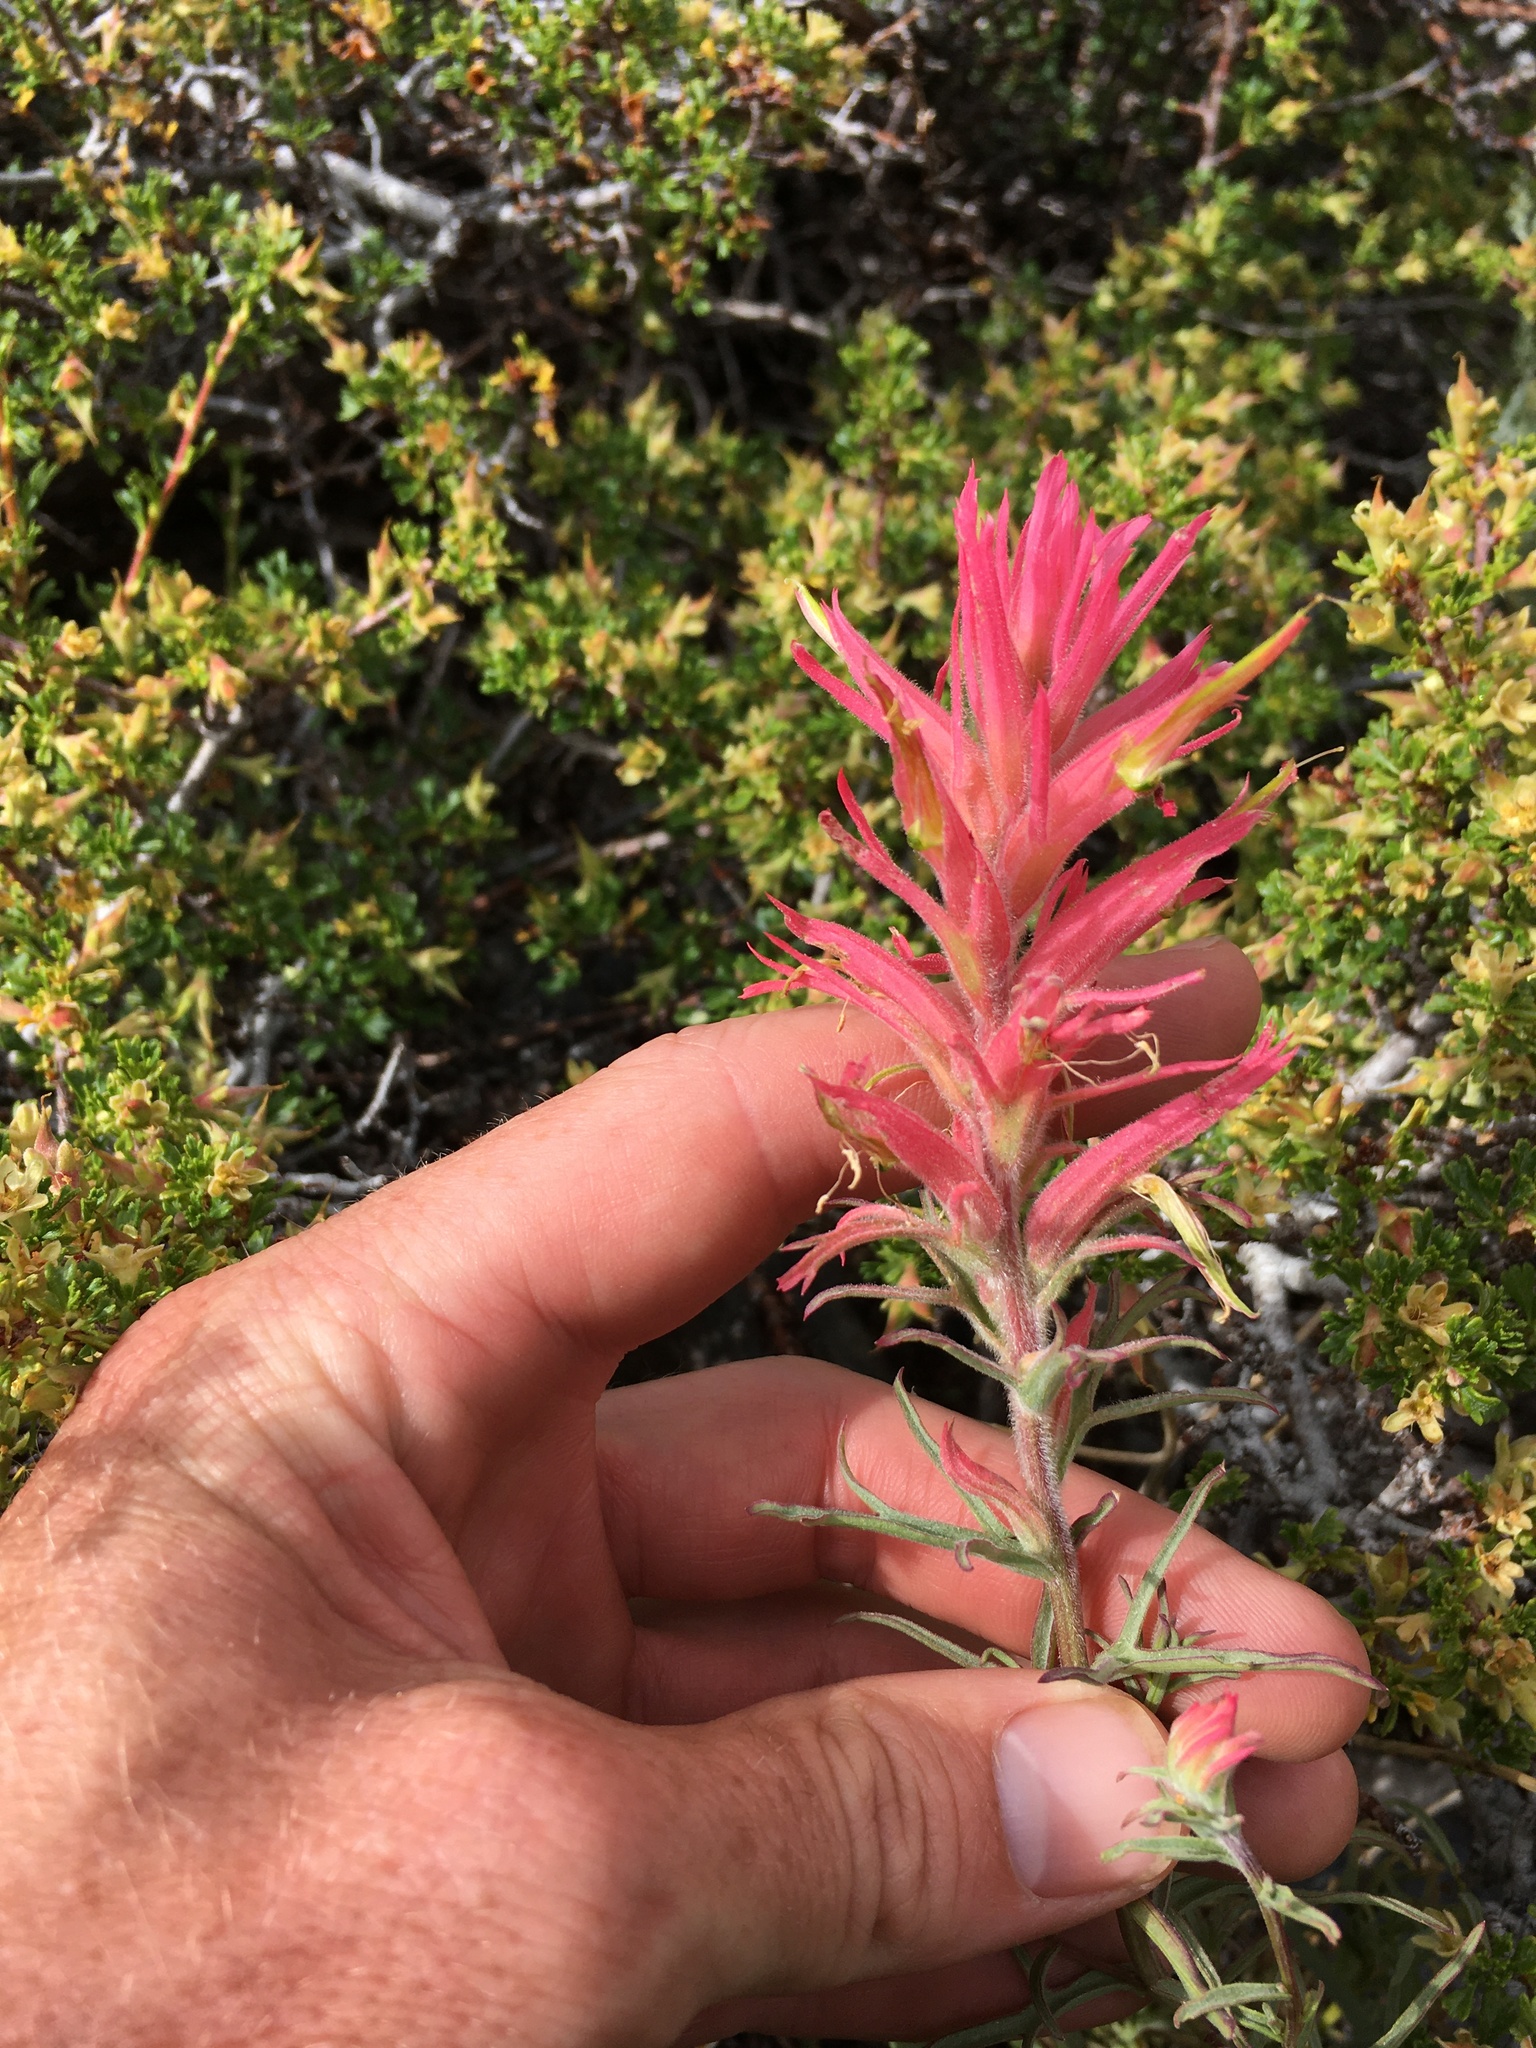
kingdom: Plantae
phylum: Tracheophyta
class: Magnoliopsida
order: Lamiales
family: Orobanchaceae
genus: Castilleja
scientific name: Castilleja linariifolia
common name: Wyoming paintbrush
